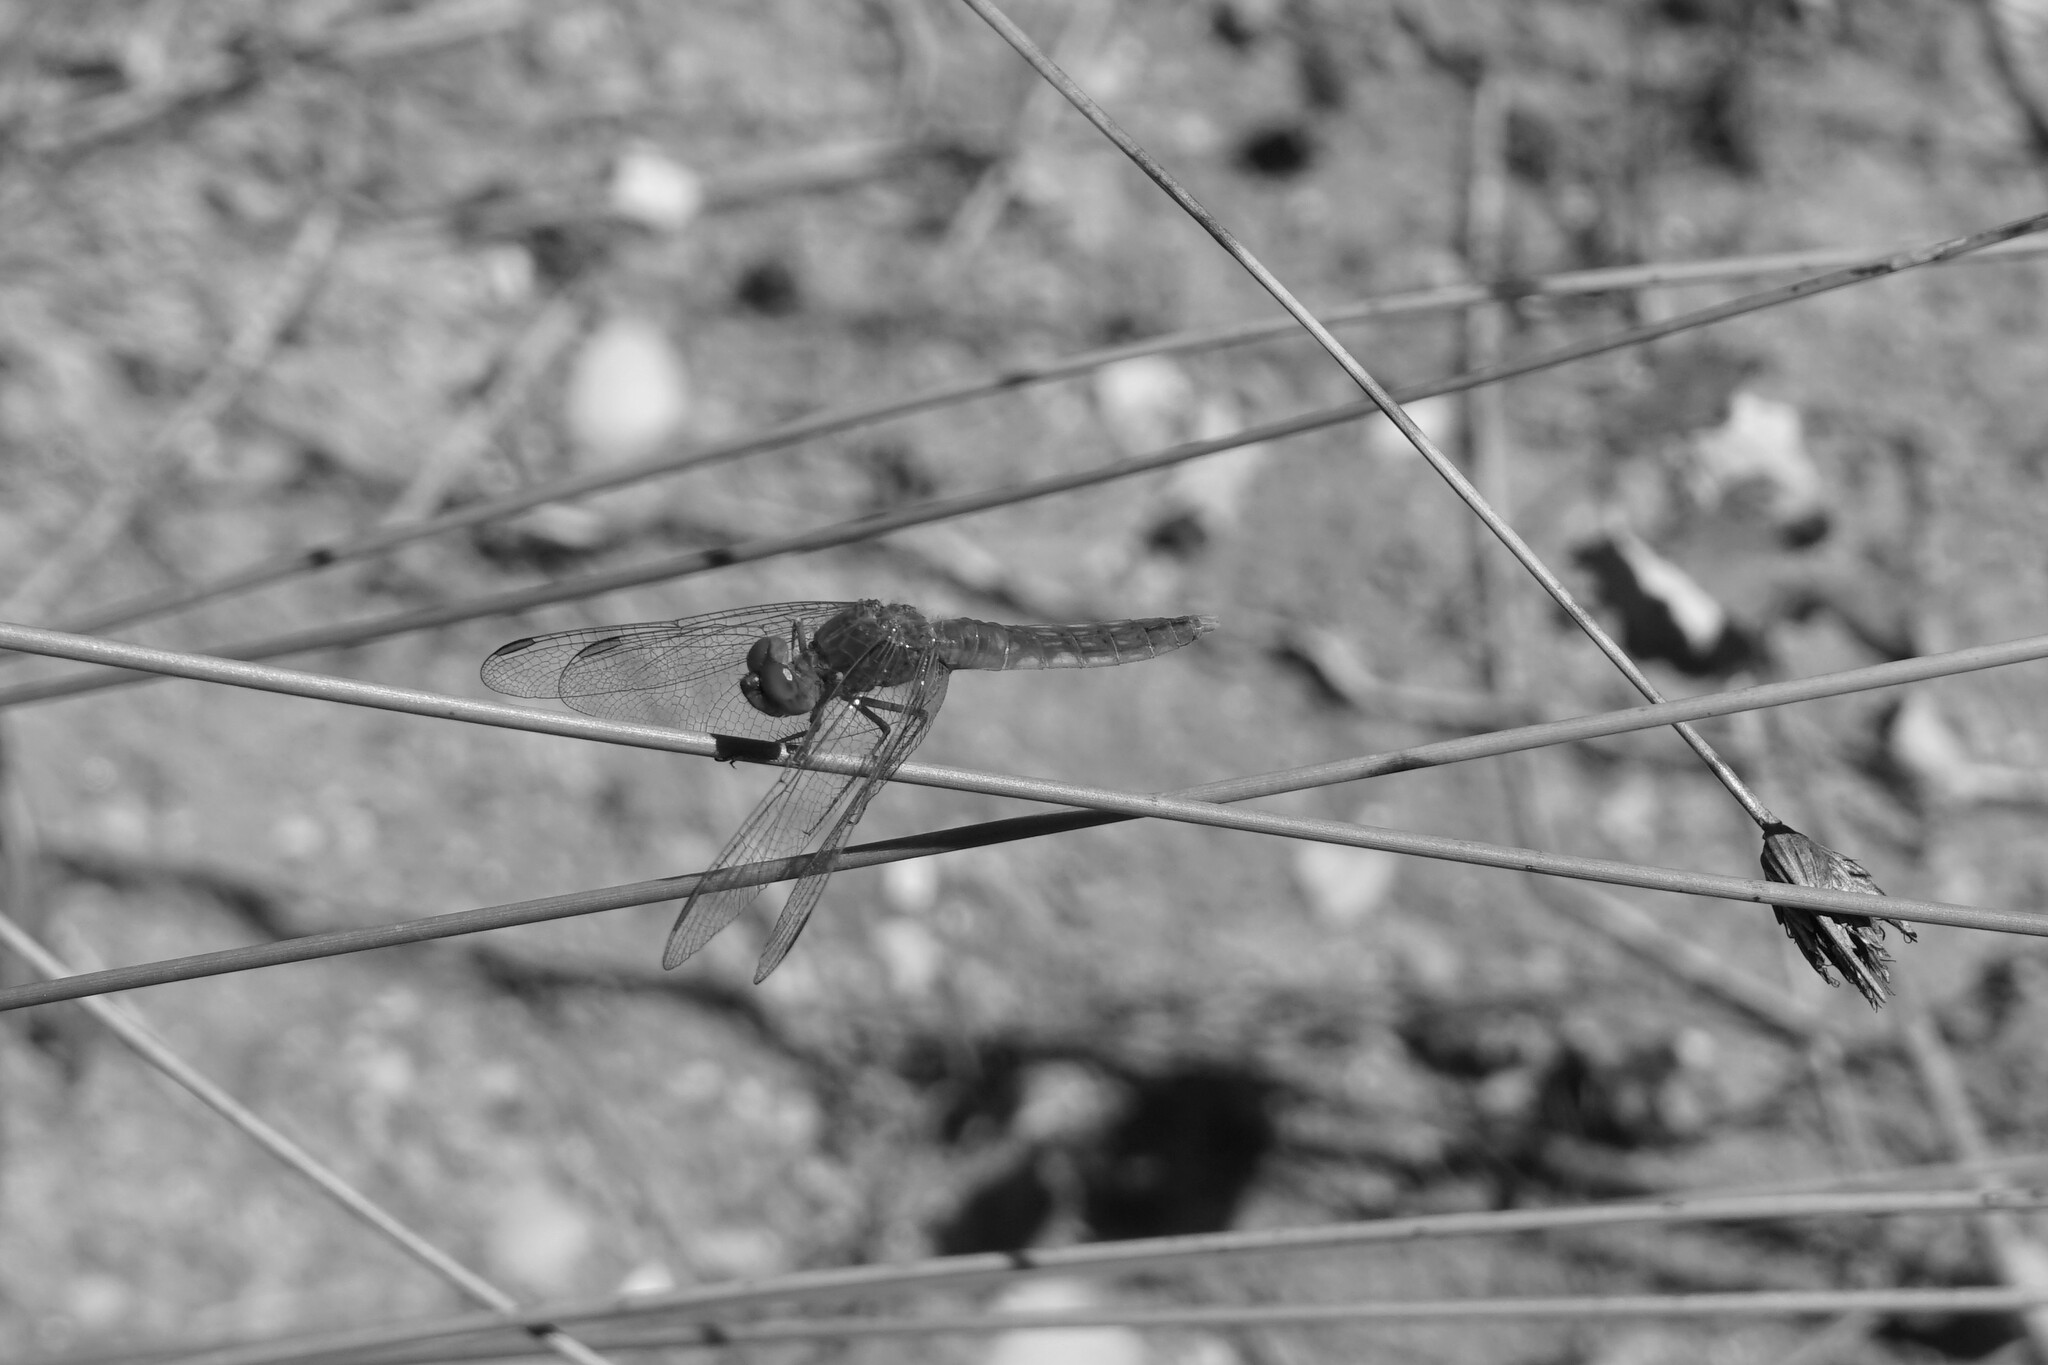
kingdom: Animalia
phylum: Arthropoda
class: Insecta
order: Odonata
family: Libellulidae
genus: Crocothemis
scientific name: Crocothemis erythraea
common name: Scarlet dragonfly
